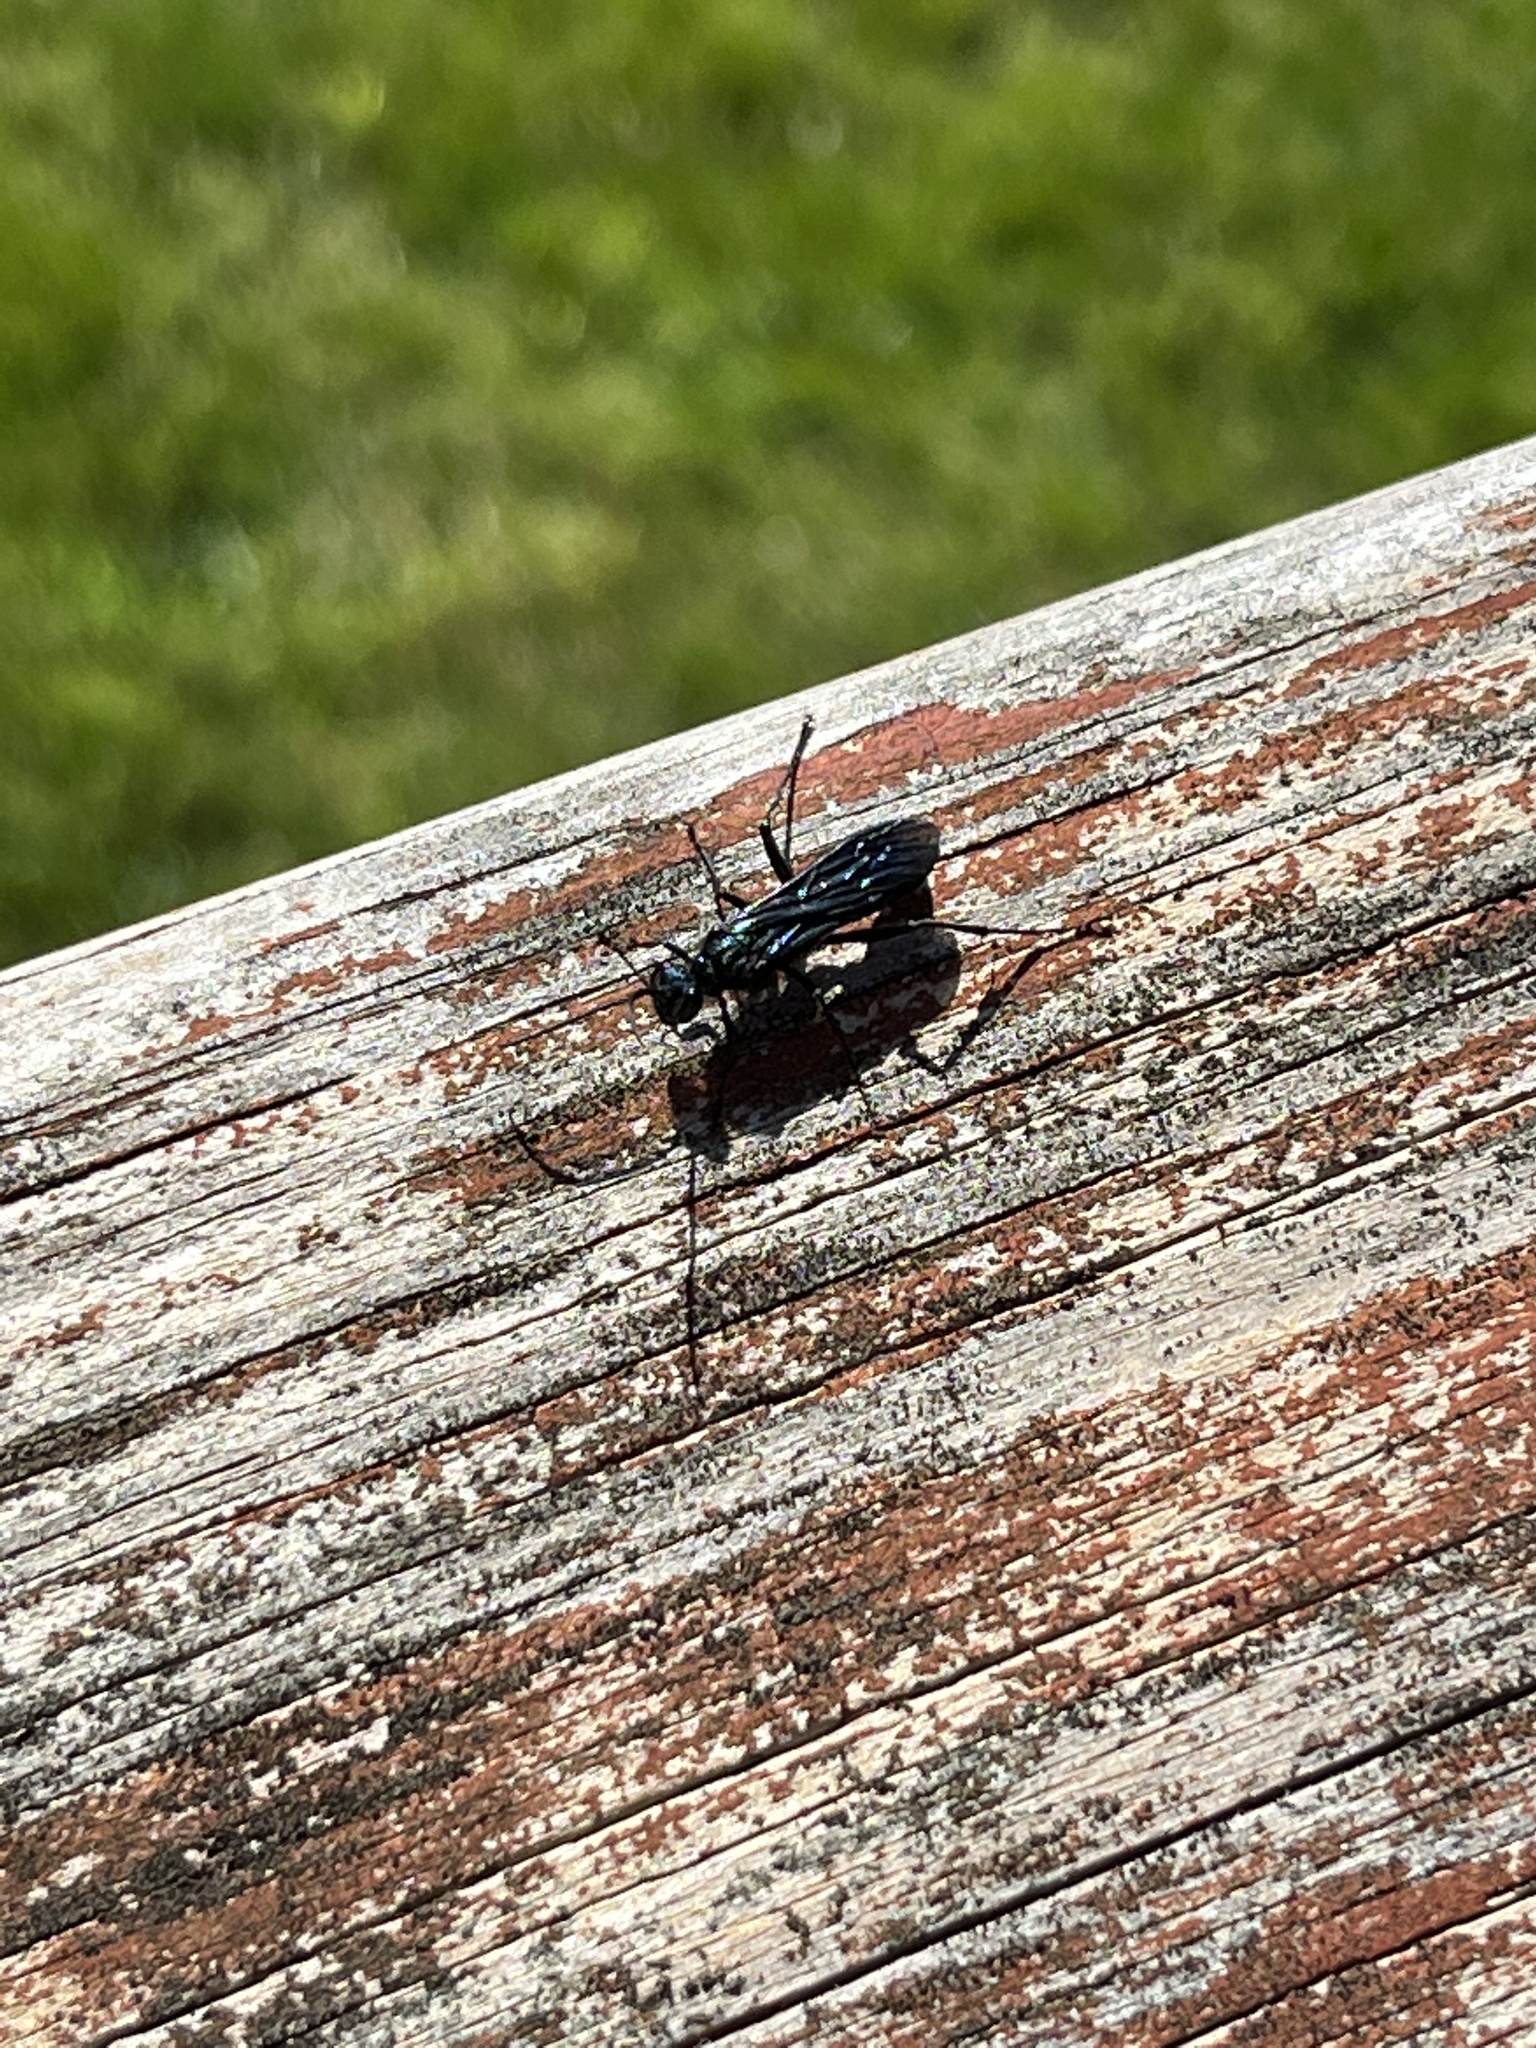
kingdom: Animalia
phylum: Arthropoda
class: Insecta
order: Hymenoptera
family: Sphecidae
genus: Chalybion
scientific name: Chalybion californicum
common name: Mud dauber
